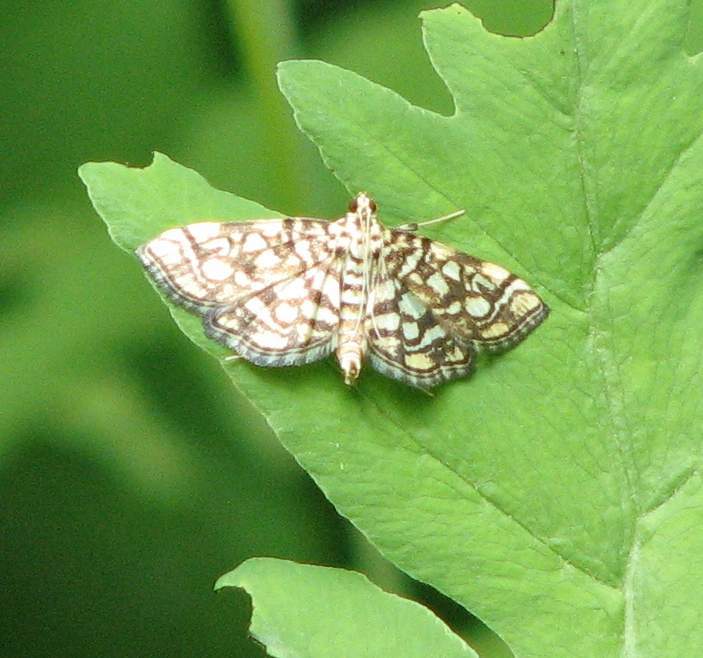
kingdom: Animalia
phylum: Arthropoda
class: Insecta
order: Lepidoptera
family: Crambidae
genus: Lygropia
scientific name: Lygropia rivulalis
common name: Bog lygropia moth
